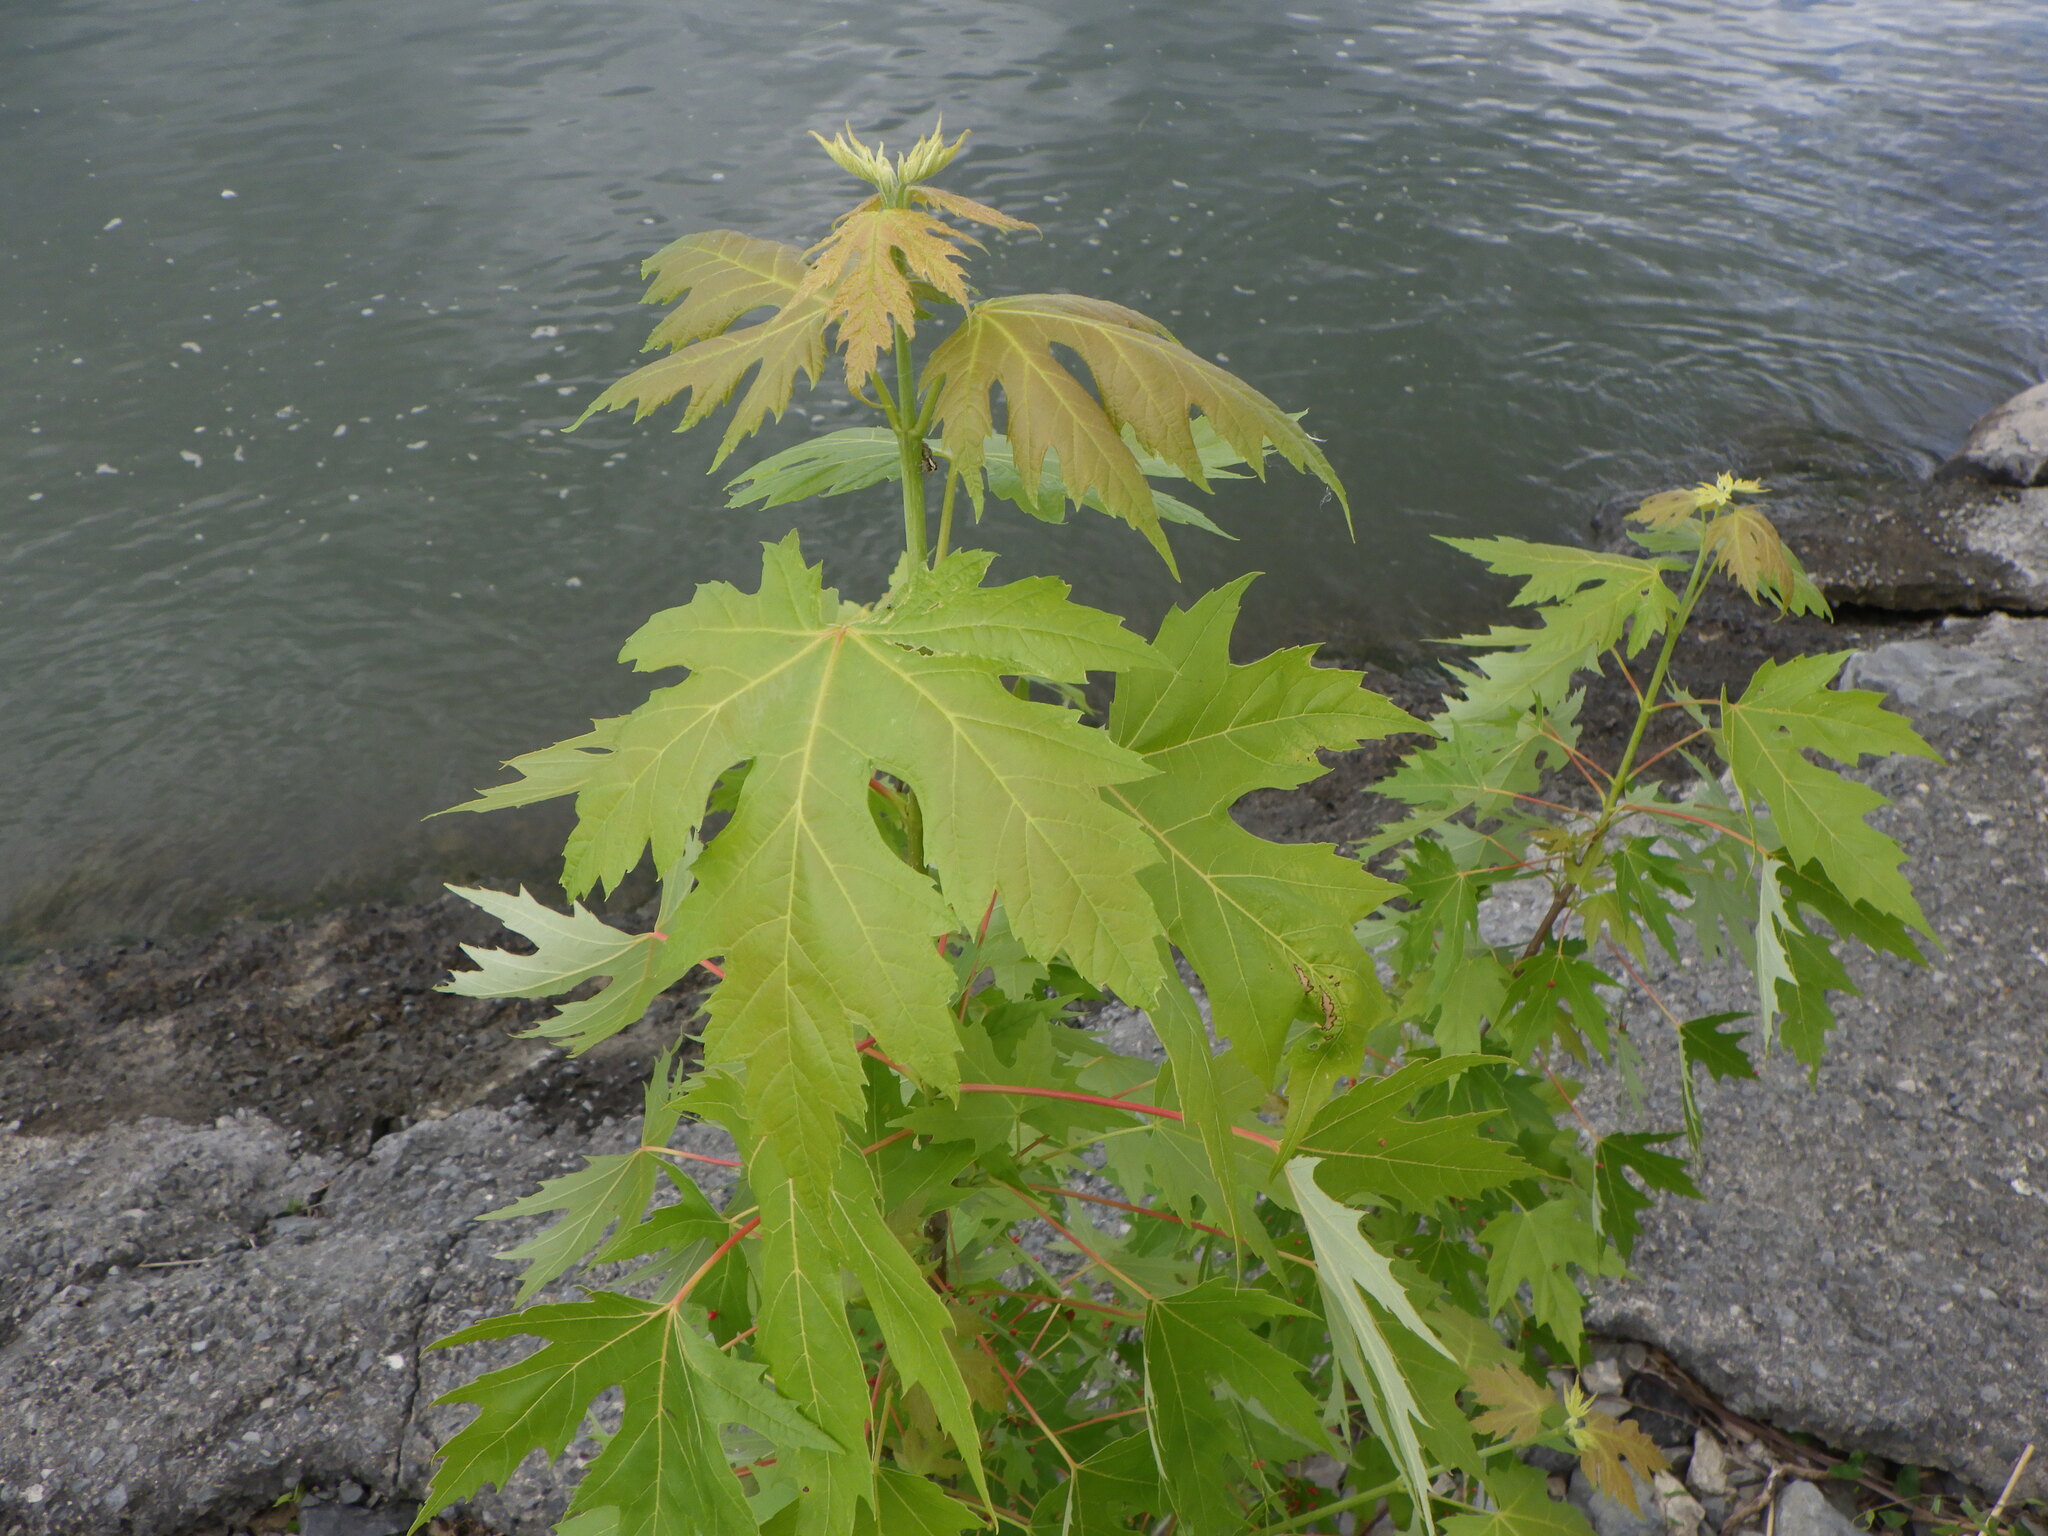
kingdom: Plantae
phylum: Tracheophyta
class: Magnoliopsida
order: Sapindales
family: Sapindaceae
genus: Acer
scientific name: Acer saccharinum
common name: Silver maple
